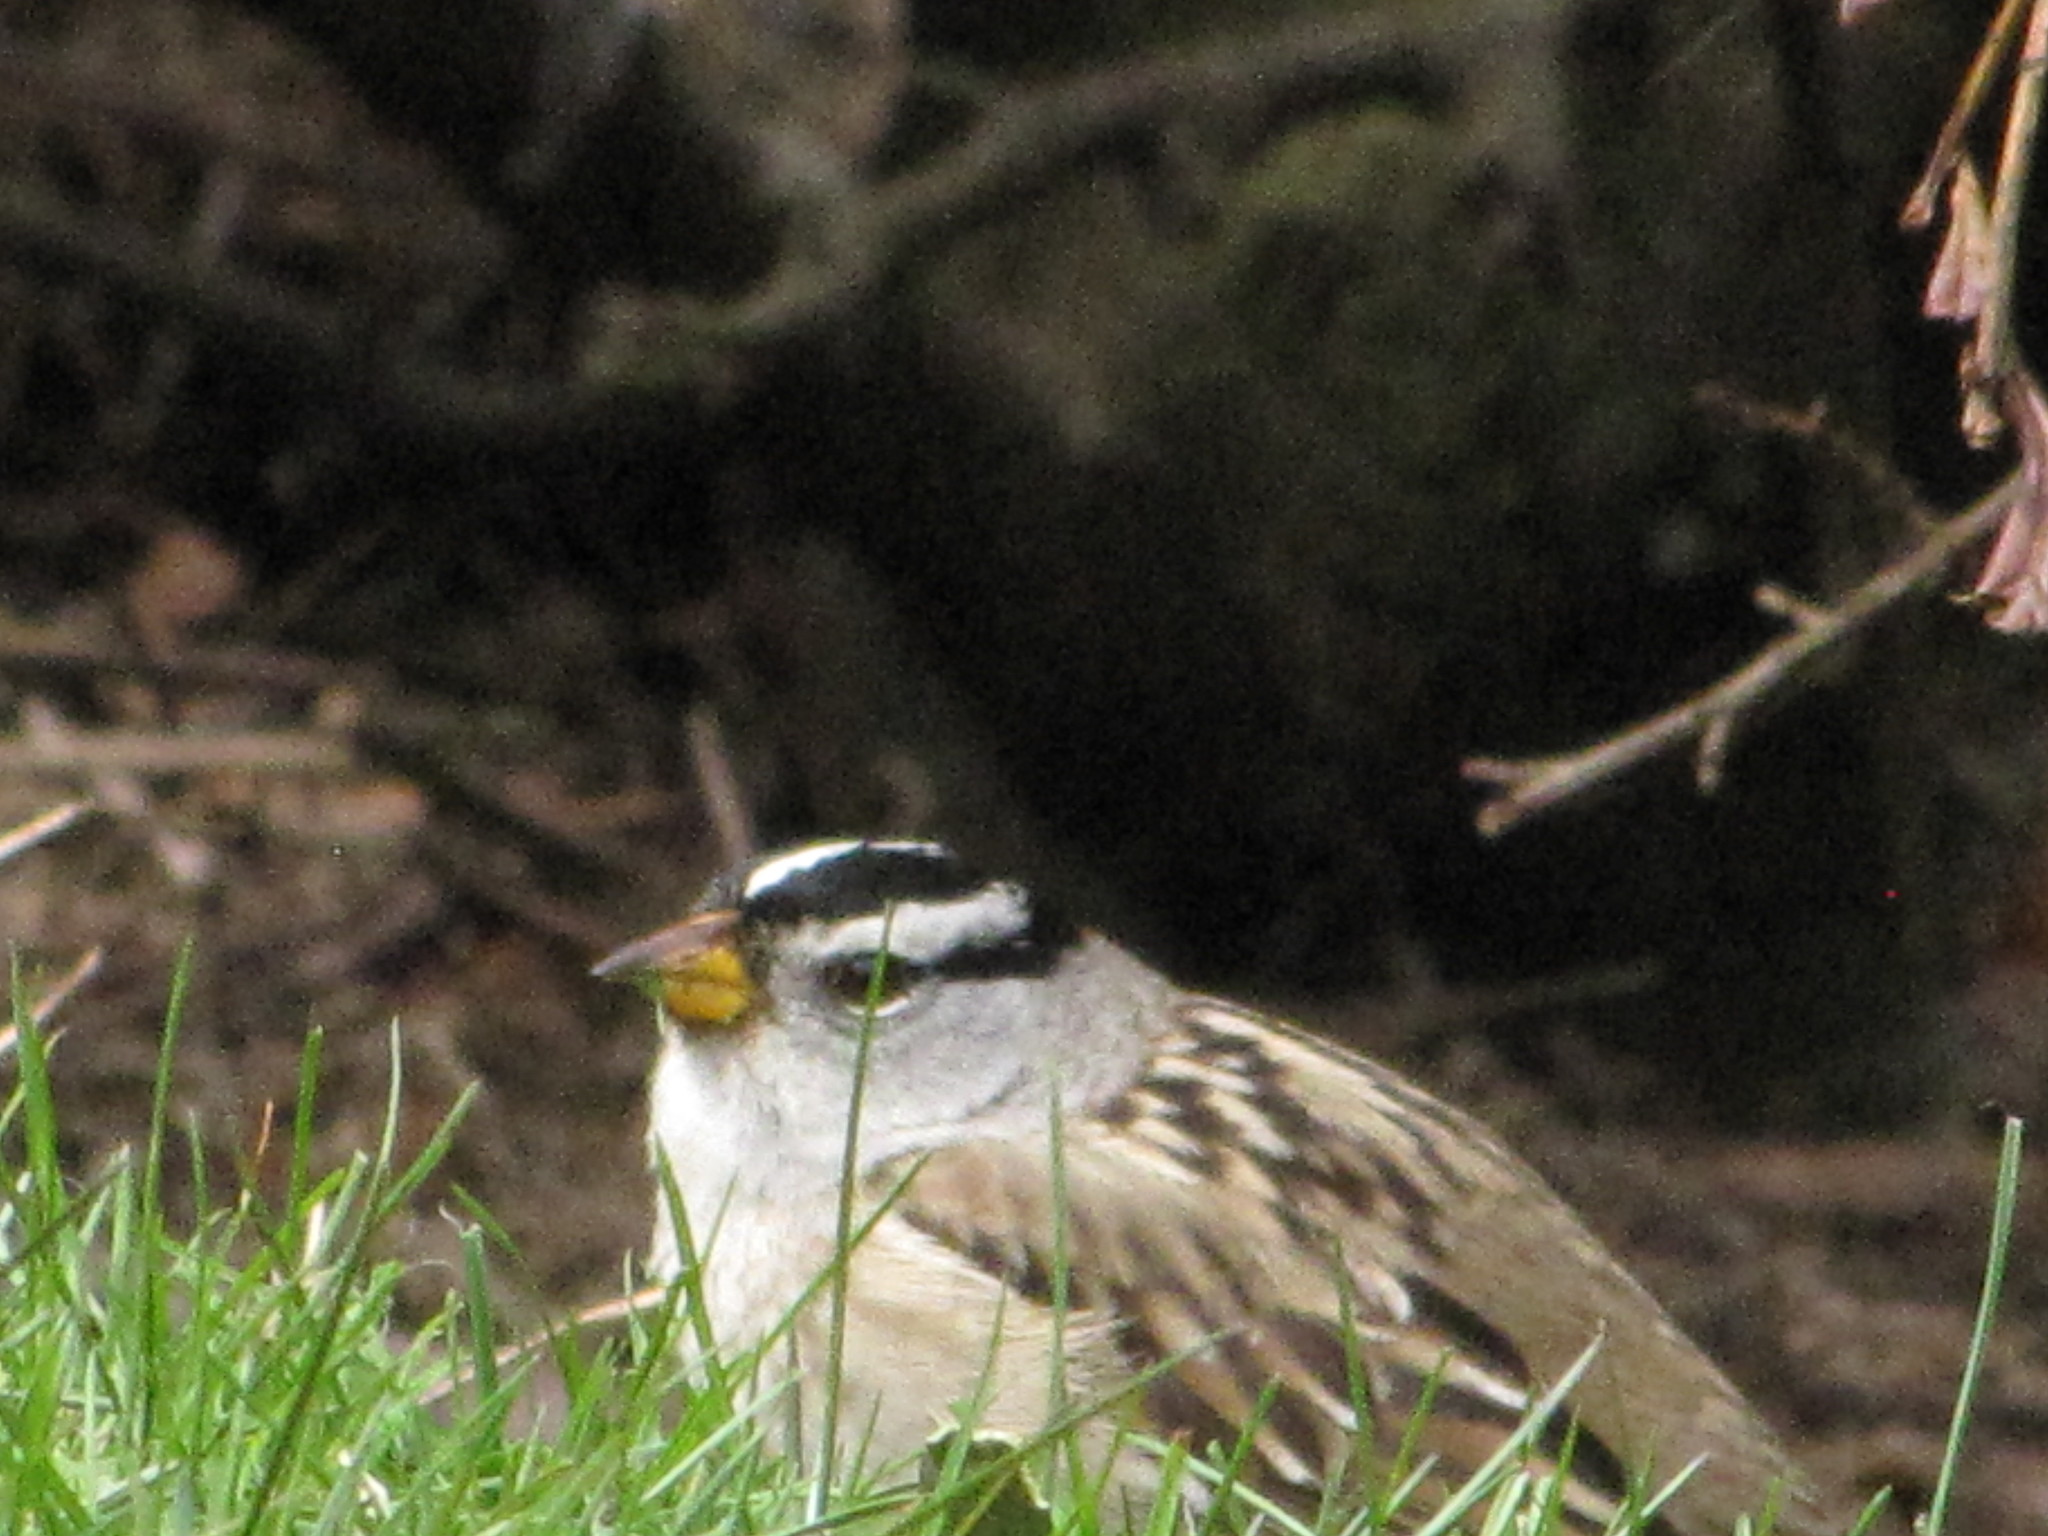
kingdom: Animalia
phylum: Chordata
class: Aves
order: Passeriformes
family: Passerellidae
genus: Zonotrichia
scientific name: Zonotrichia leucophrys
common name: White-crowned sparrow
